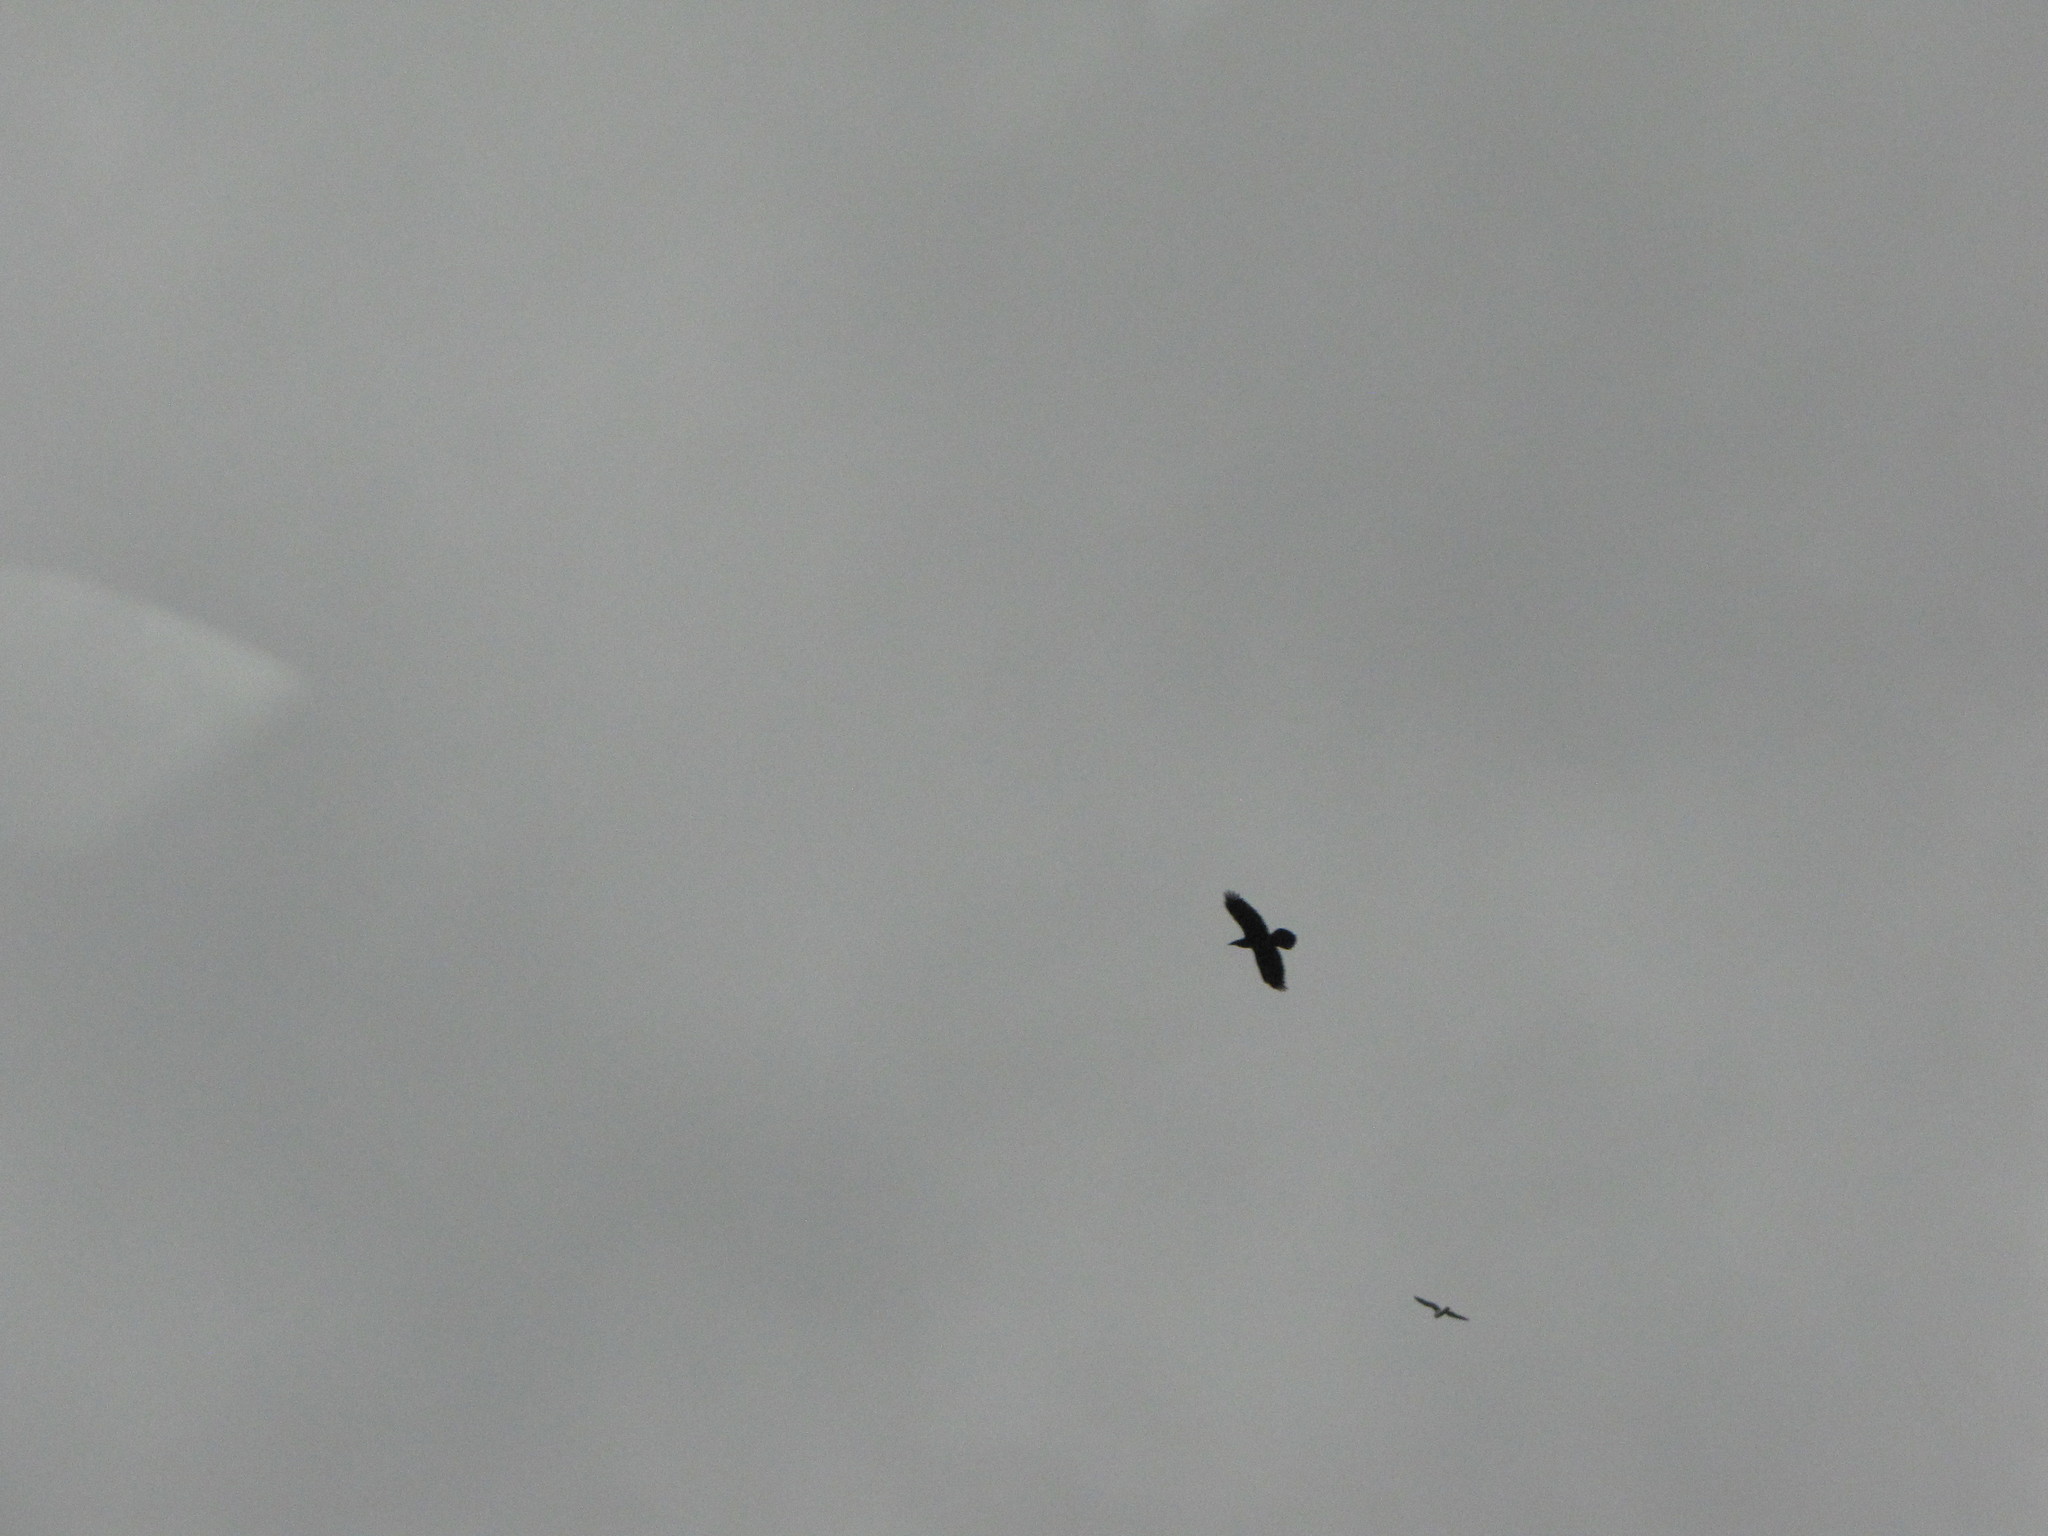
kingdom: Animalia
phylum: Chordata
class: Aves
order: Passeriformes
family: Corvidae
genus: Corvus
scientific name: Corvus corax
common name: Common raven
